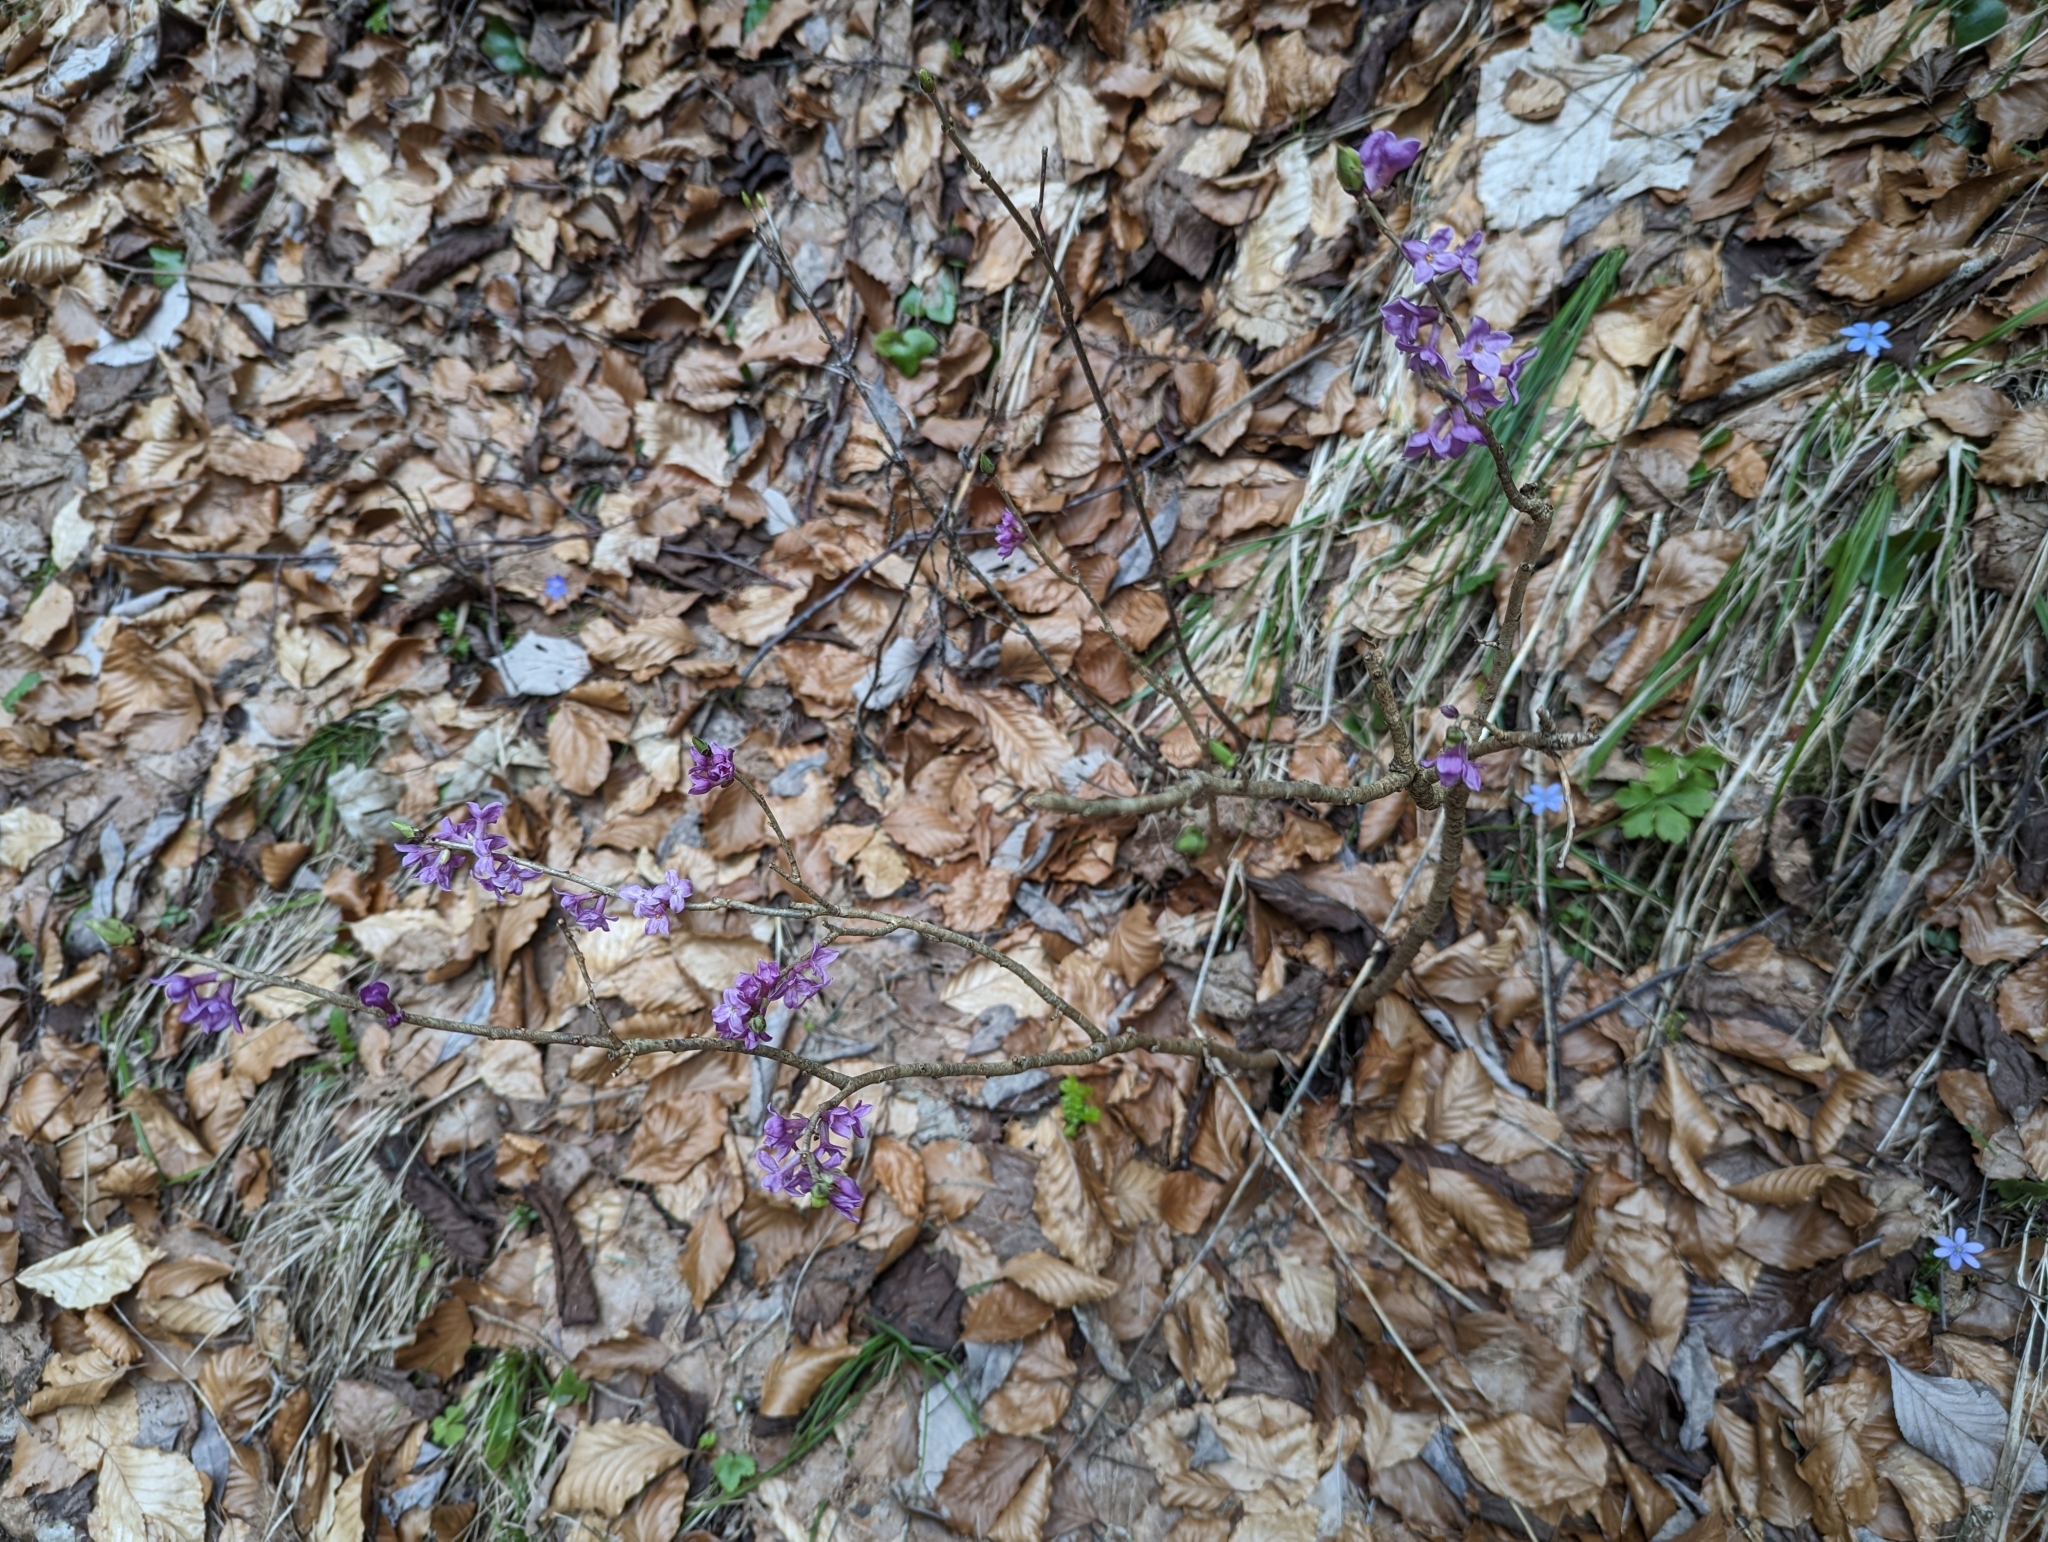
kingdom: Plantae
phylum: Tracheophyta
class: Magnoliopsida
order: Malvales
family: Thymelaeaceae
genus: Daphne
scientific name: Daphne mezereum
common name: Mezereon
